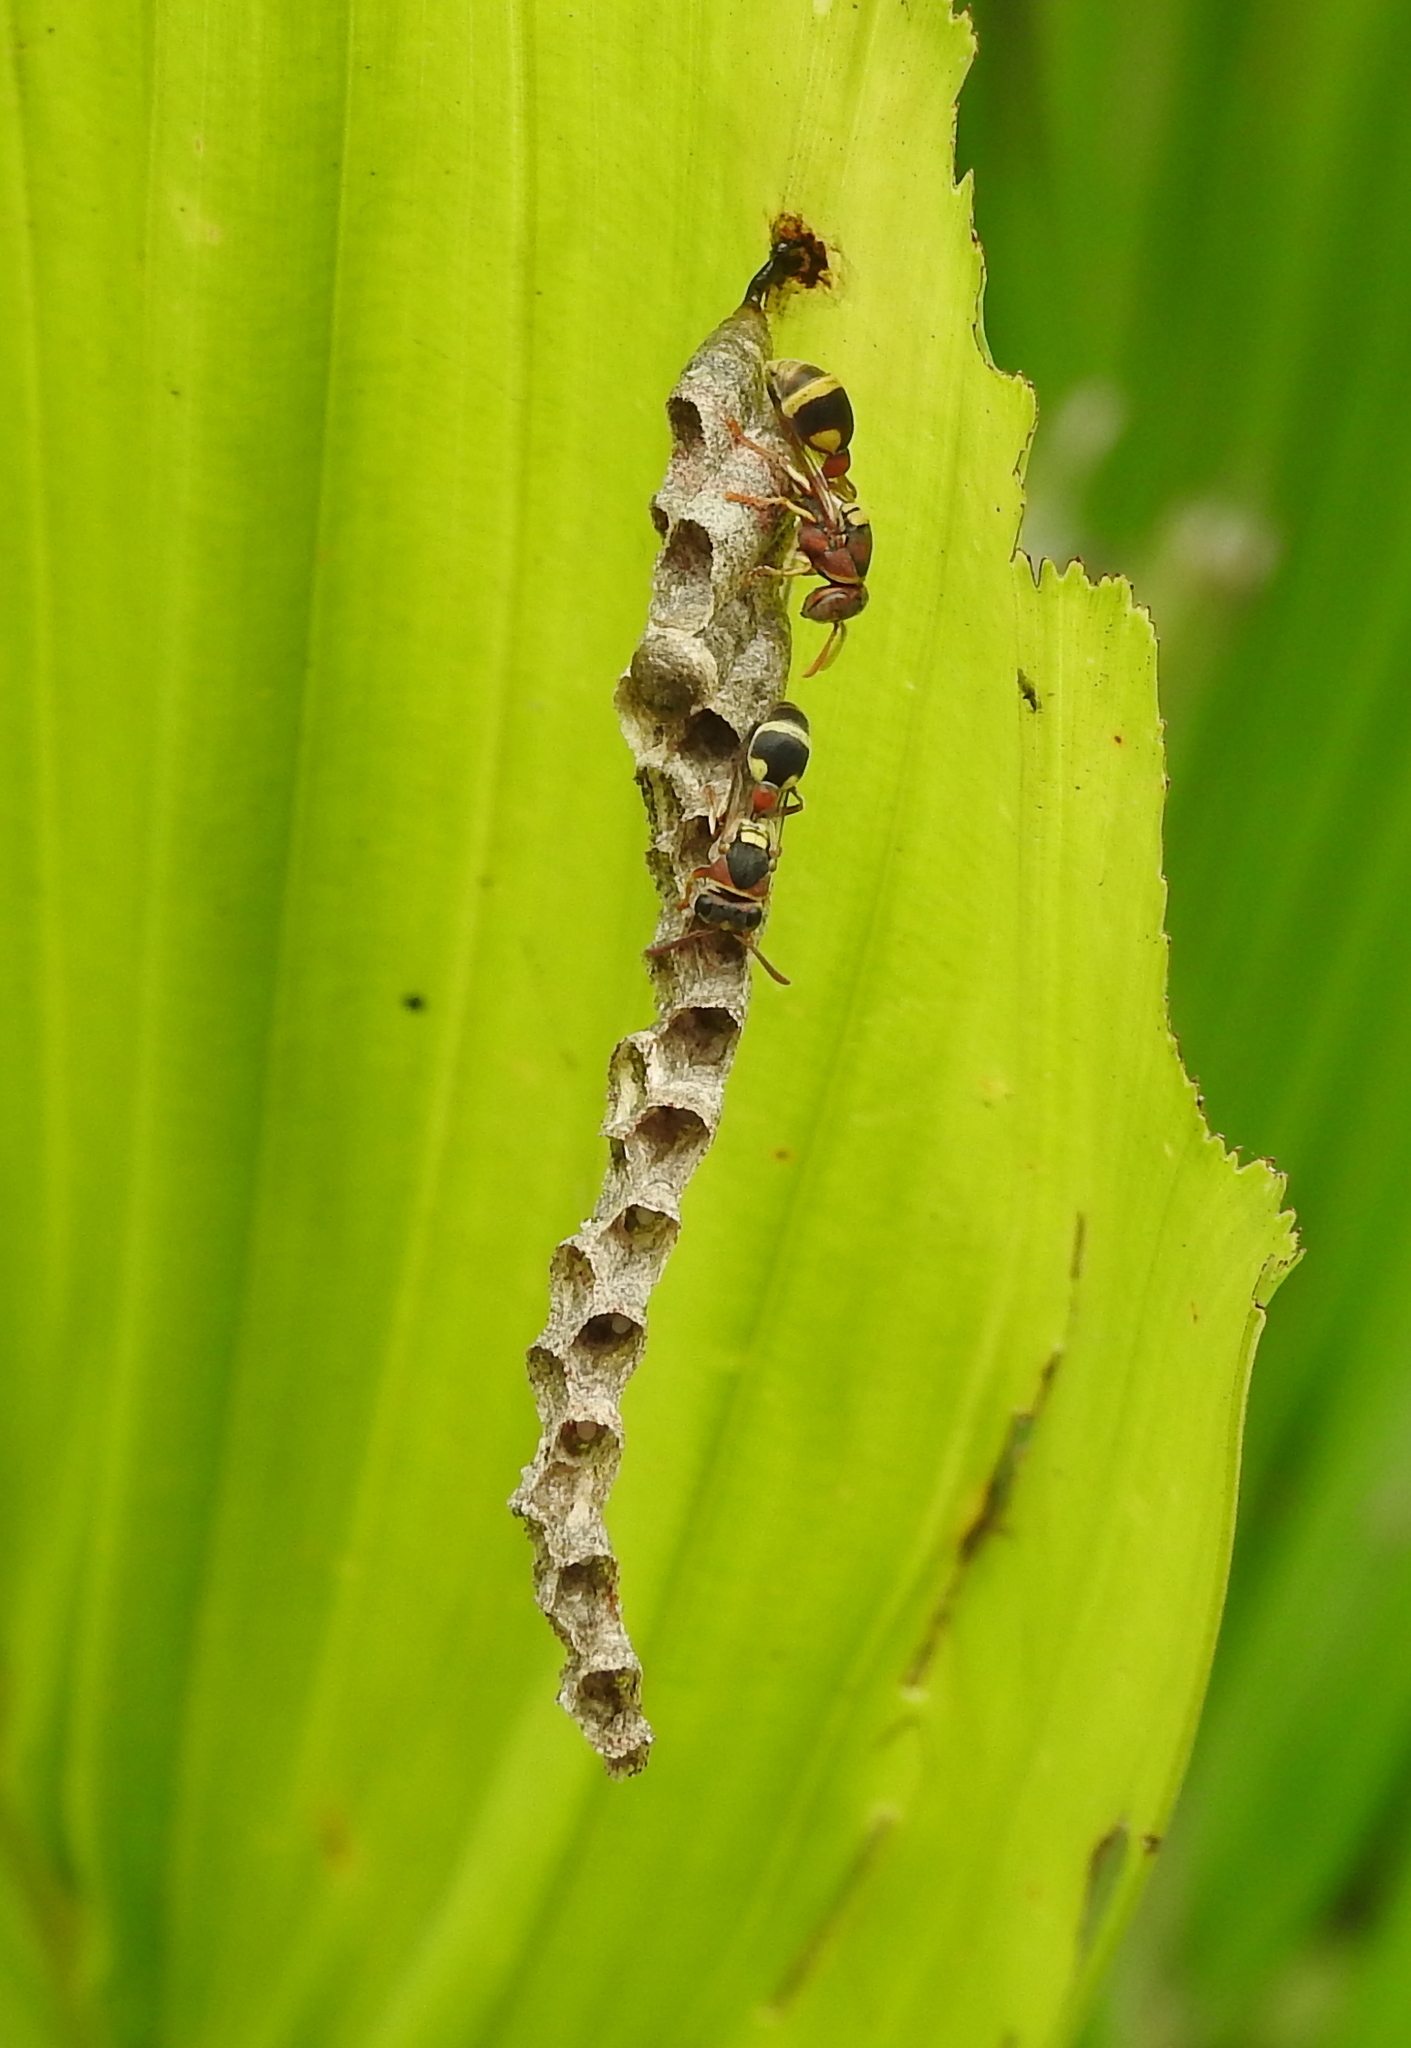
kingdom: Animalia
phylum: Arthropoda
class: Insecta
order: Hymenoptera
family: Vespidae
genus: Ropalidia
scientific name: Ropalidia jacobsoni
